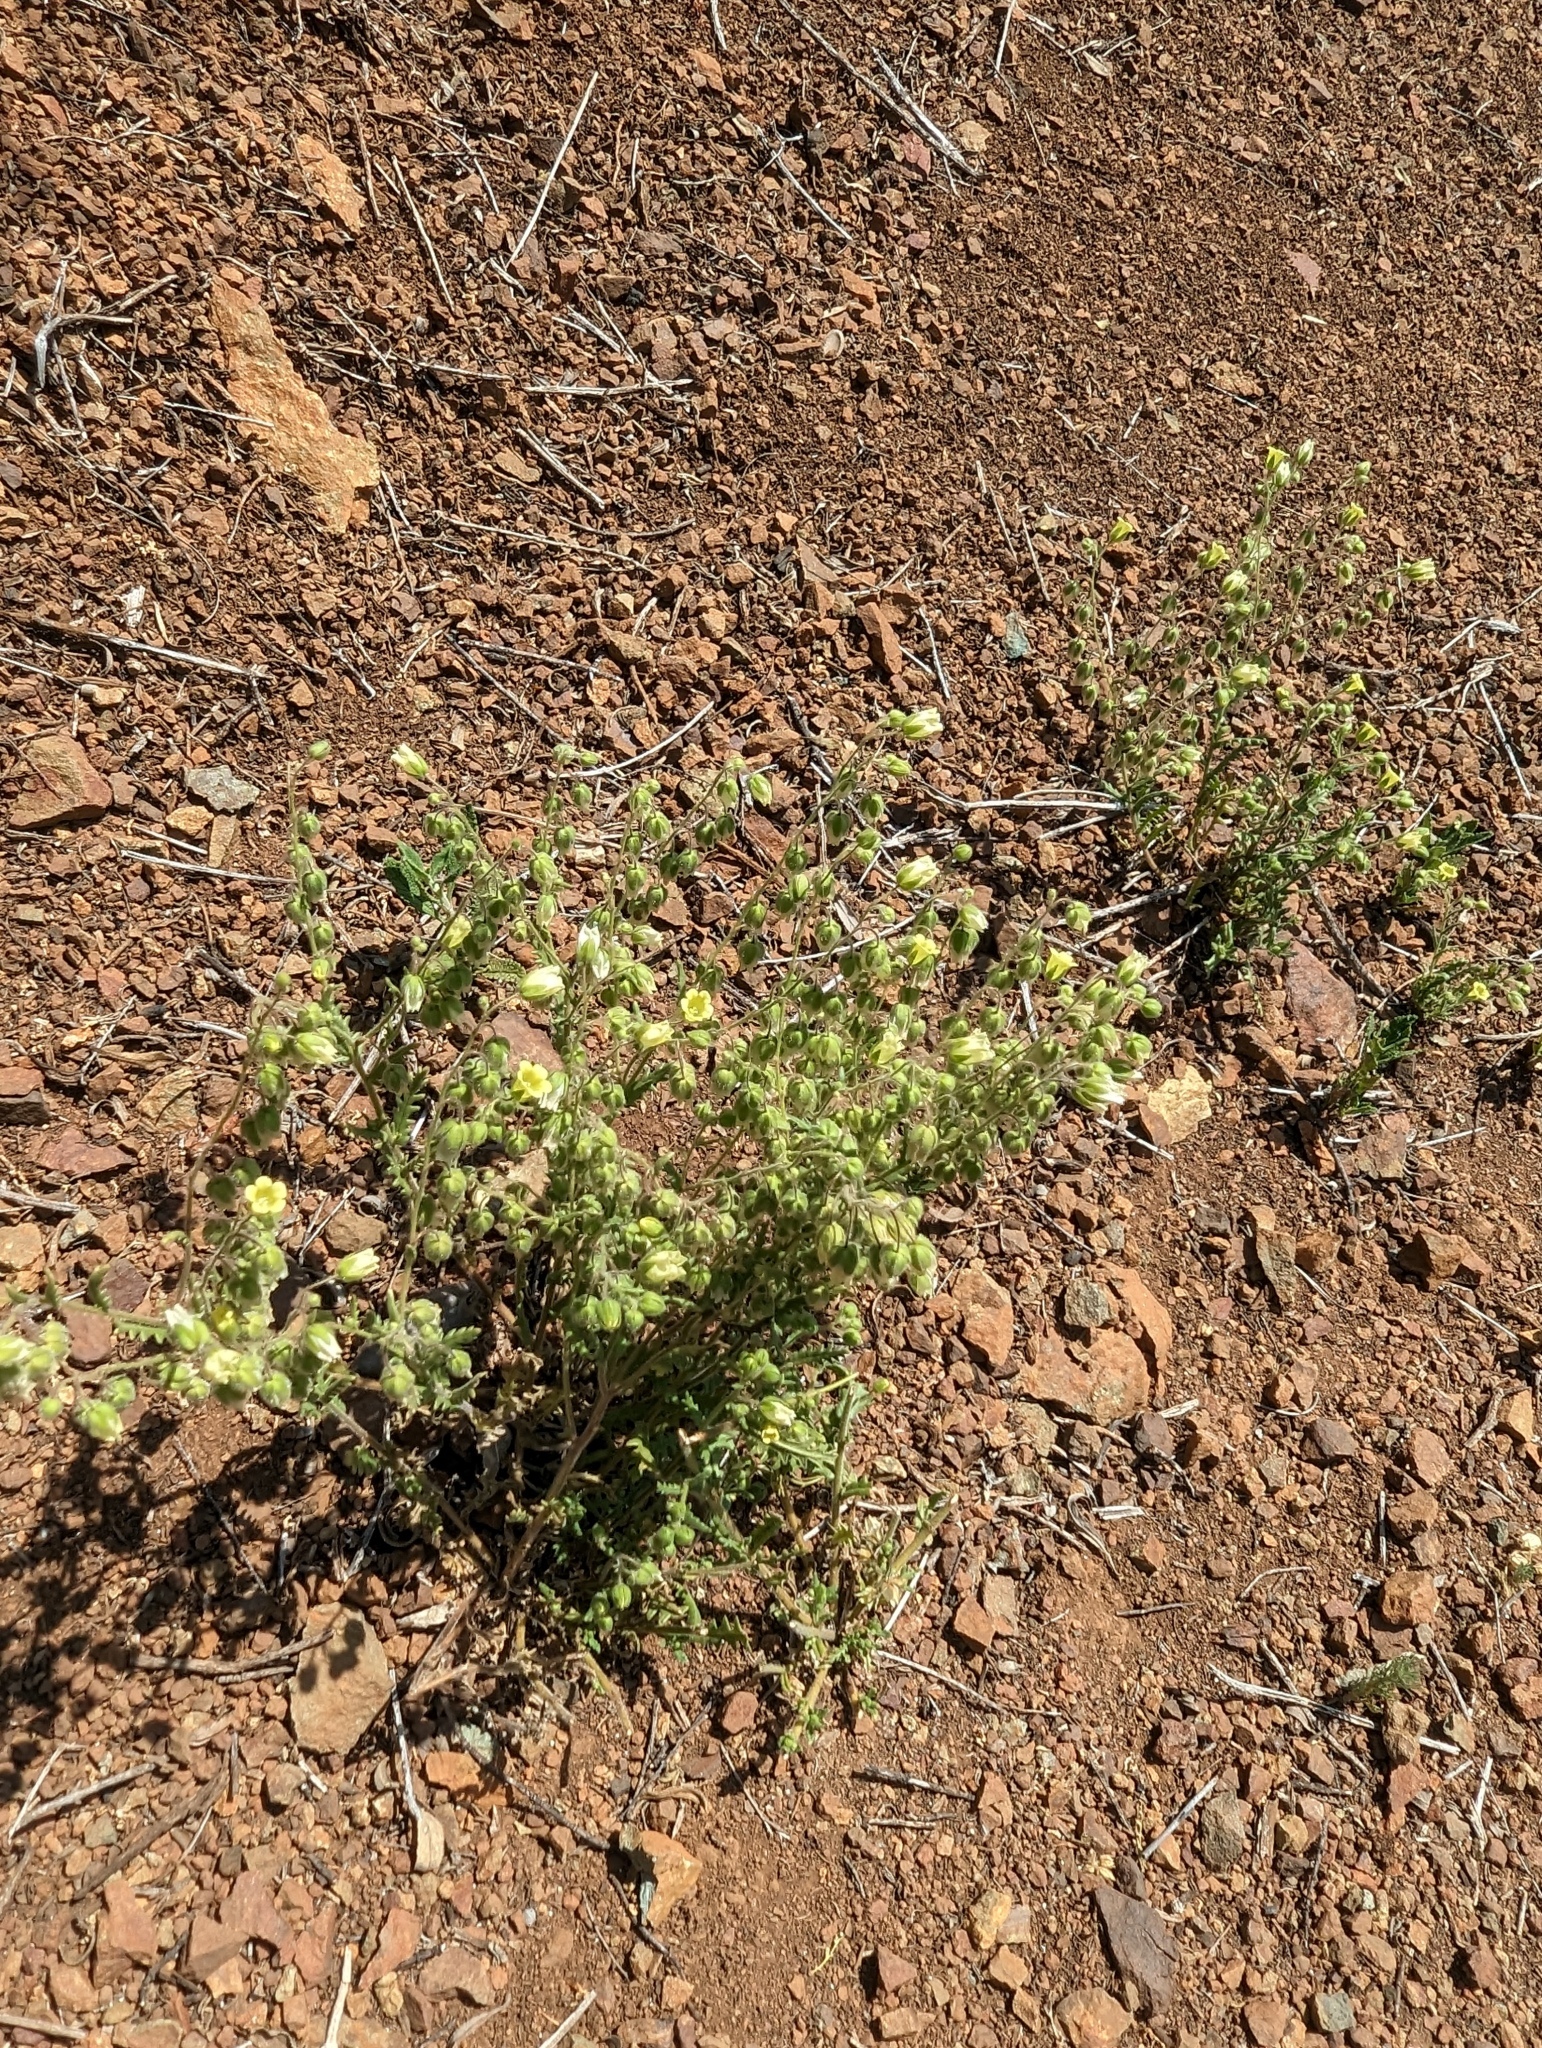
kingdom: Plantae
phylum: Tracheophyta
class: Magnoliopsida
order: Boraginales
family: Hydrophyllaceae
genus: Emmenanthe
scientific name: Emmenanthe penduliflora
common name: Whispering-bells
